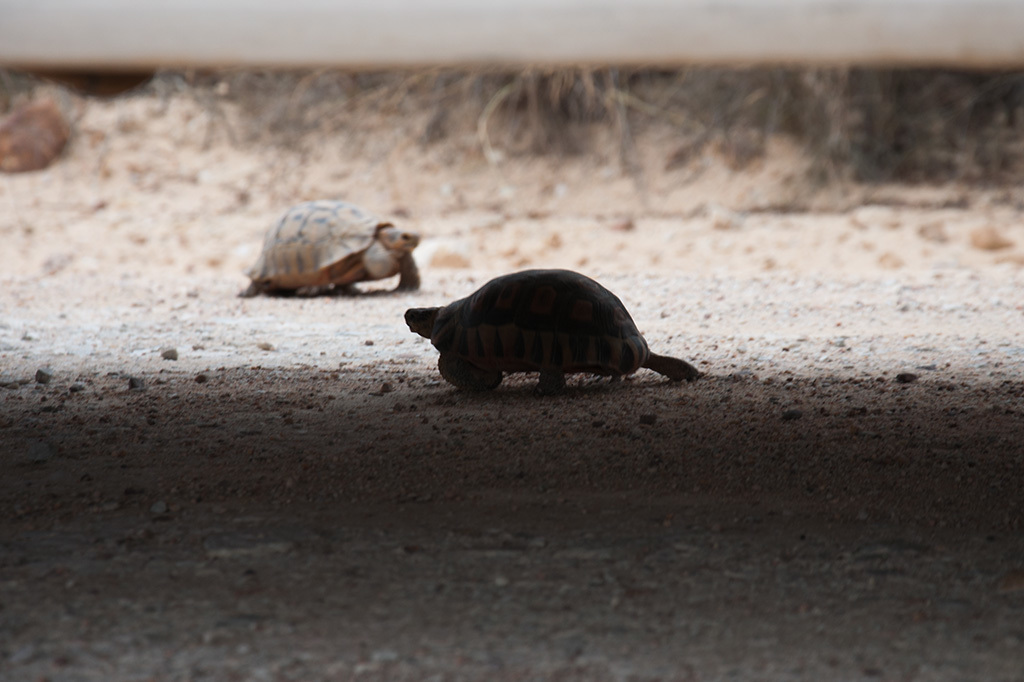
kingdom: Animalia
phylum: Chordata
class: Testudines
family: Testudinidae
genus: Chersina
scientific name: Chersina angulata
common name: South african bowsprit tortoise
